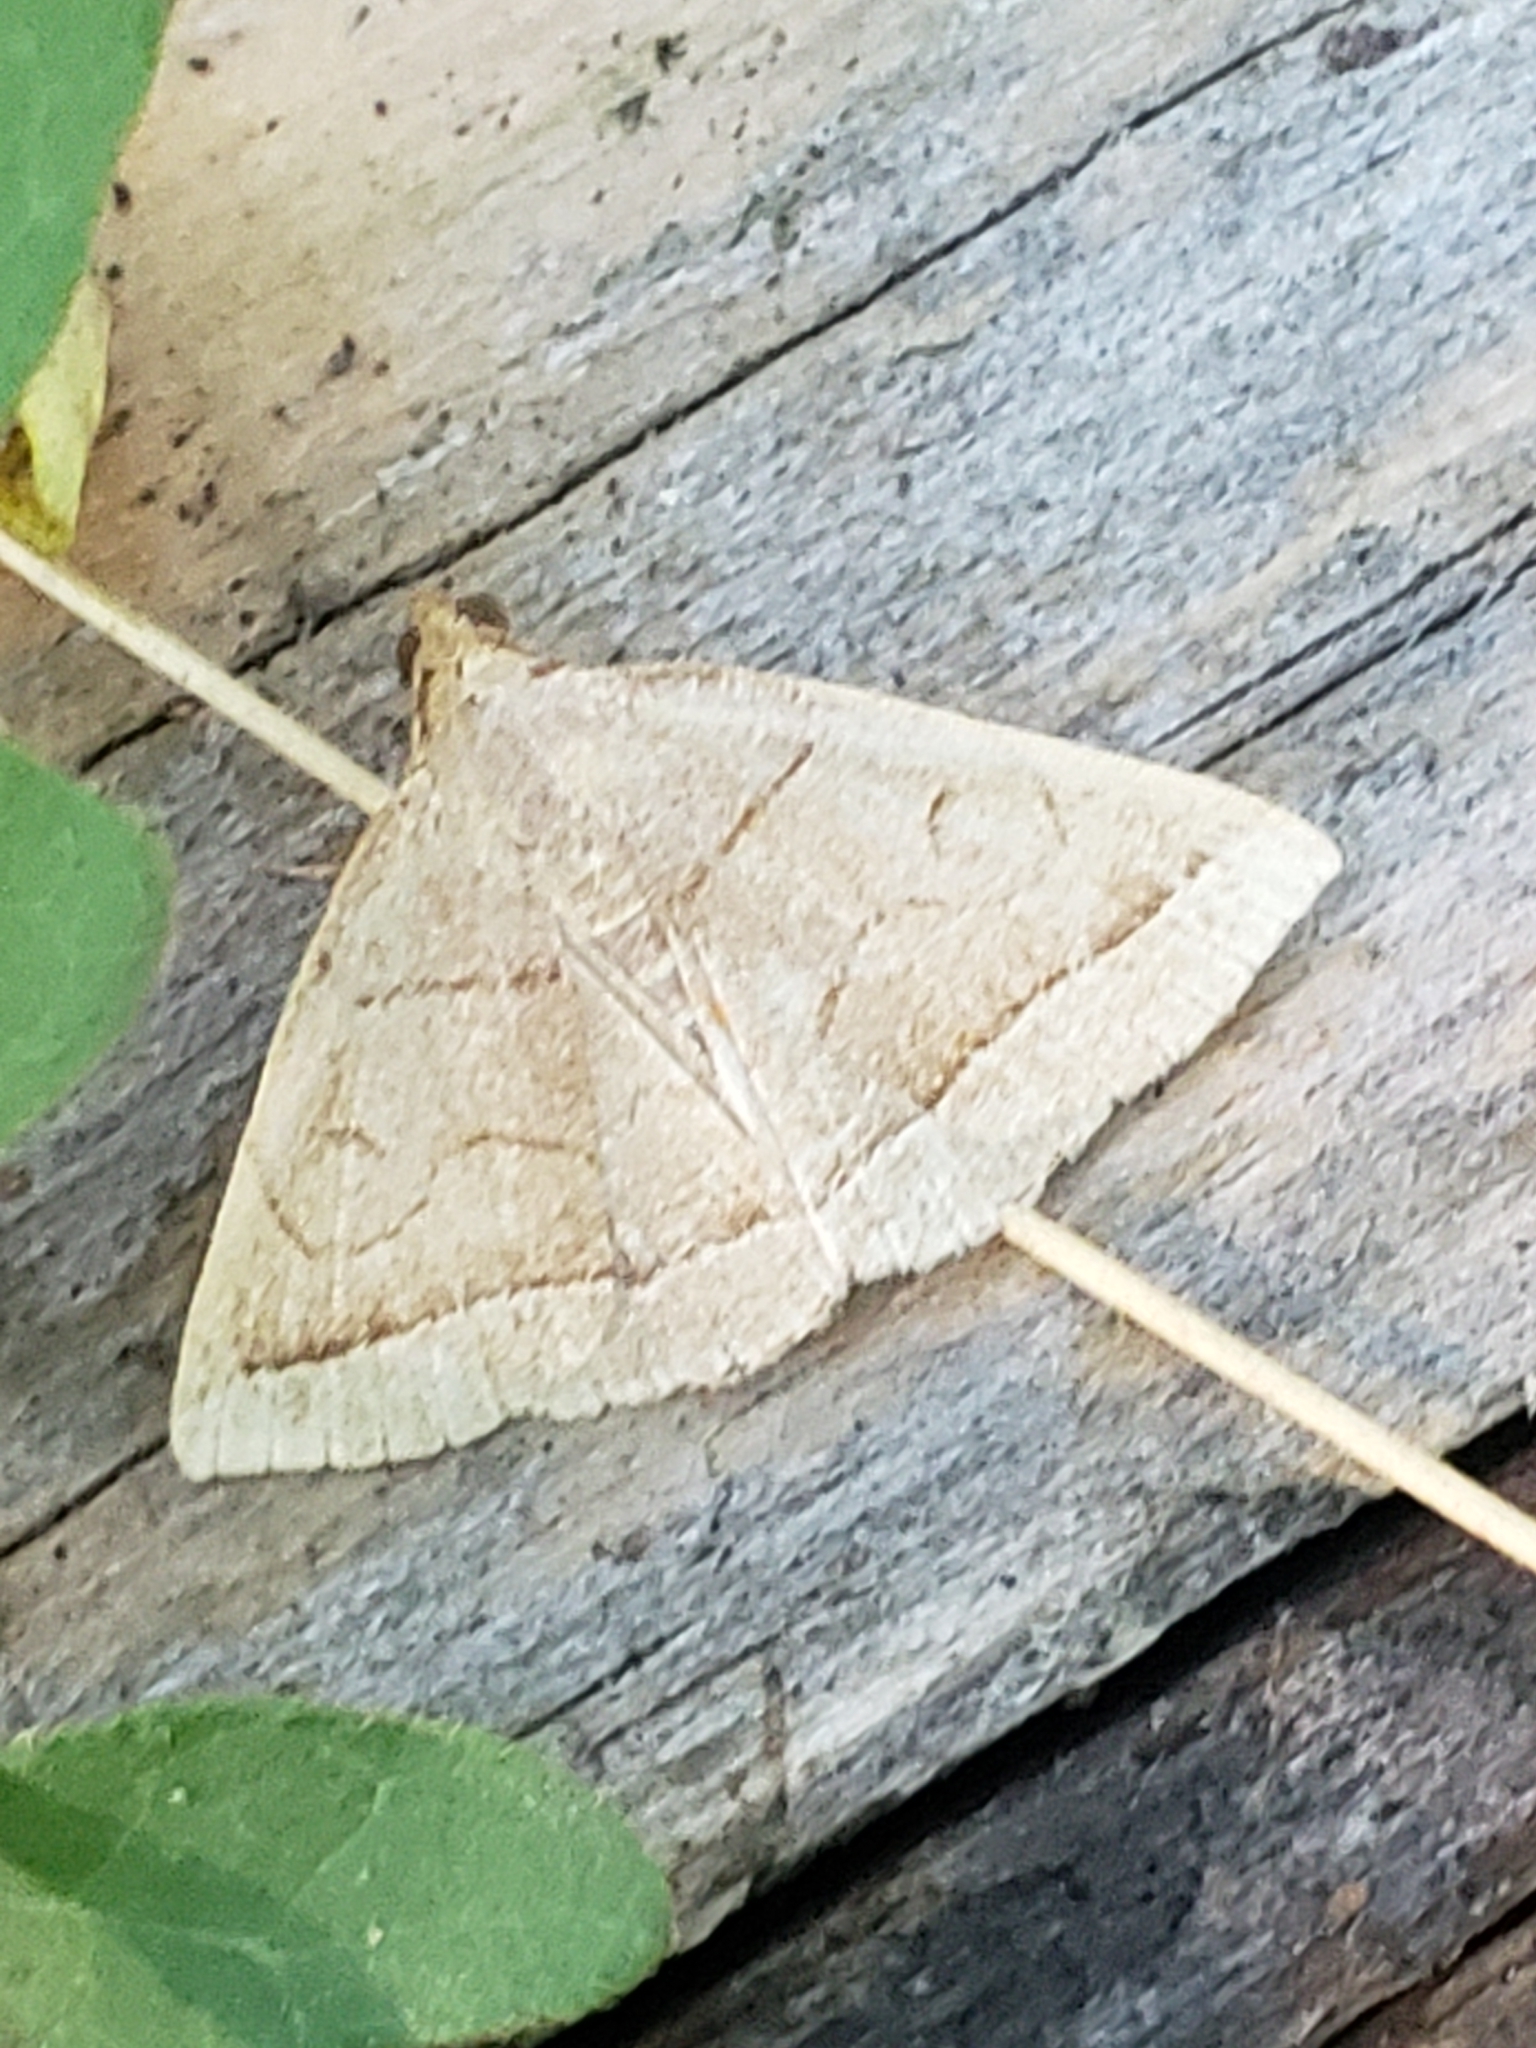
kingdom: Animalia
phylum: Arthropoda
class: Insecta
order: Lepidoptera
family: Erebidae
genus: Zanclognatha
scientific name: Zanclognatha cruralis
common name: Early fan-foot
